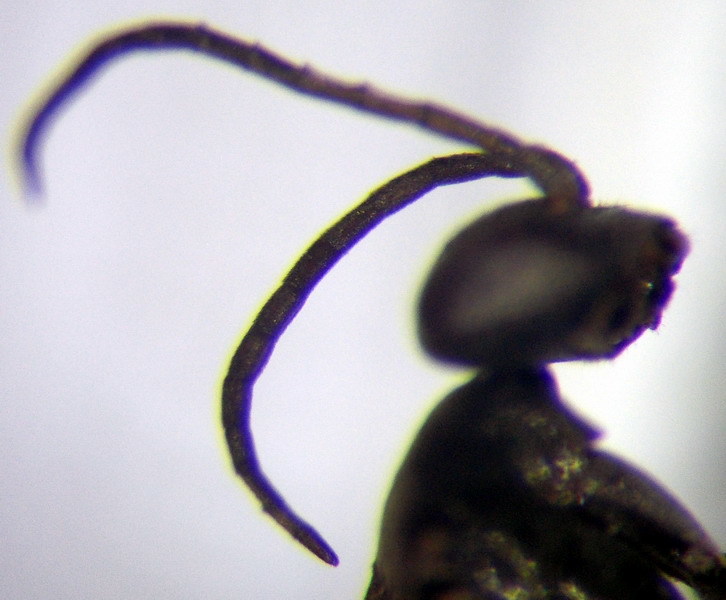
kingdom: Animalia
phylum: Arthropoda
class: Insecta
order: Hymenoptera
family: Pompilidae
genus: Microphadnus
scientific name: Microphadnus pumilus
